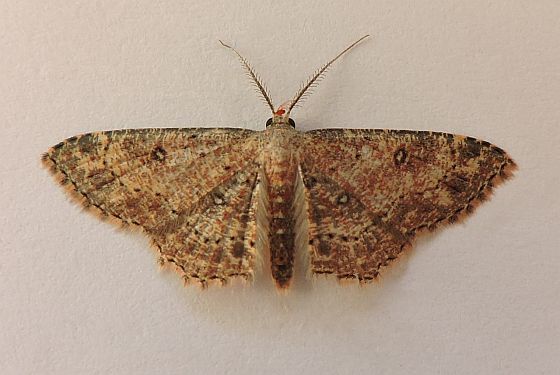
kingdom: Animalia
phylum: Arthropoda
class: Insecta
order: Lepidoptera
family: Geometridae
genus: Cyclophora
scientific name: Cyclophora nanaria
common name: Cankerworm
